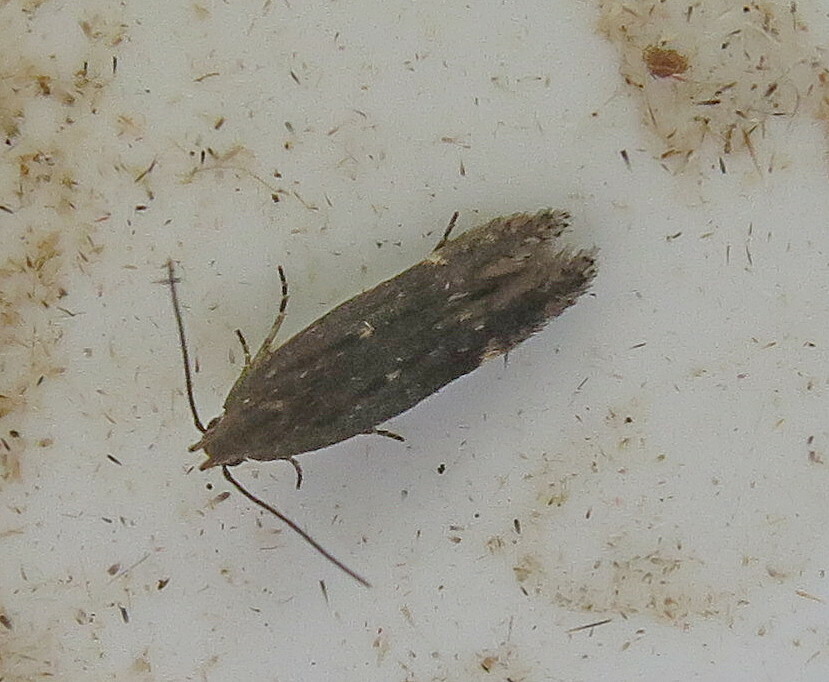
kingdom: Animalia
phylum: Arthropoda
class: Insecta
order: Lepidoptera
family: Gelechiidae
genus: Bryotropha
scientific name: Bryotropha affinis
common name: Dark groundling
